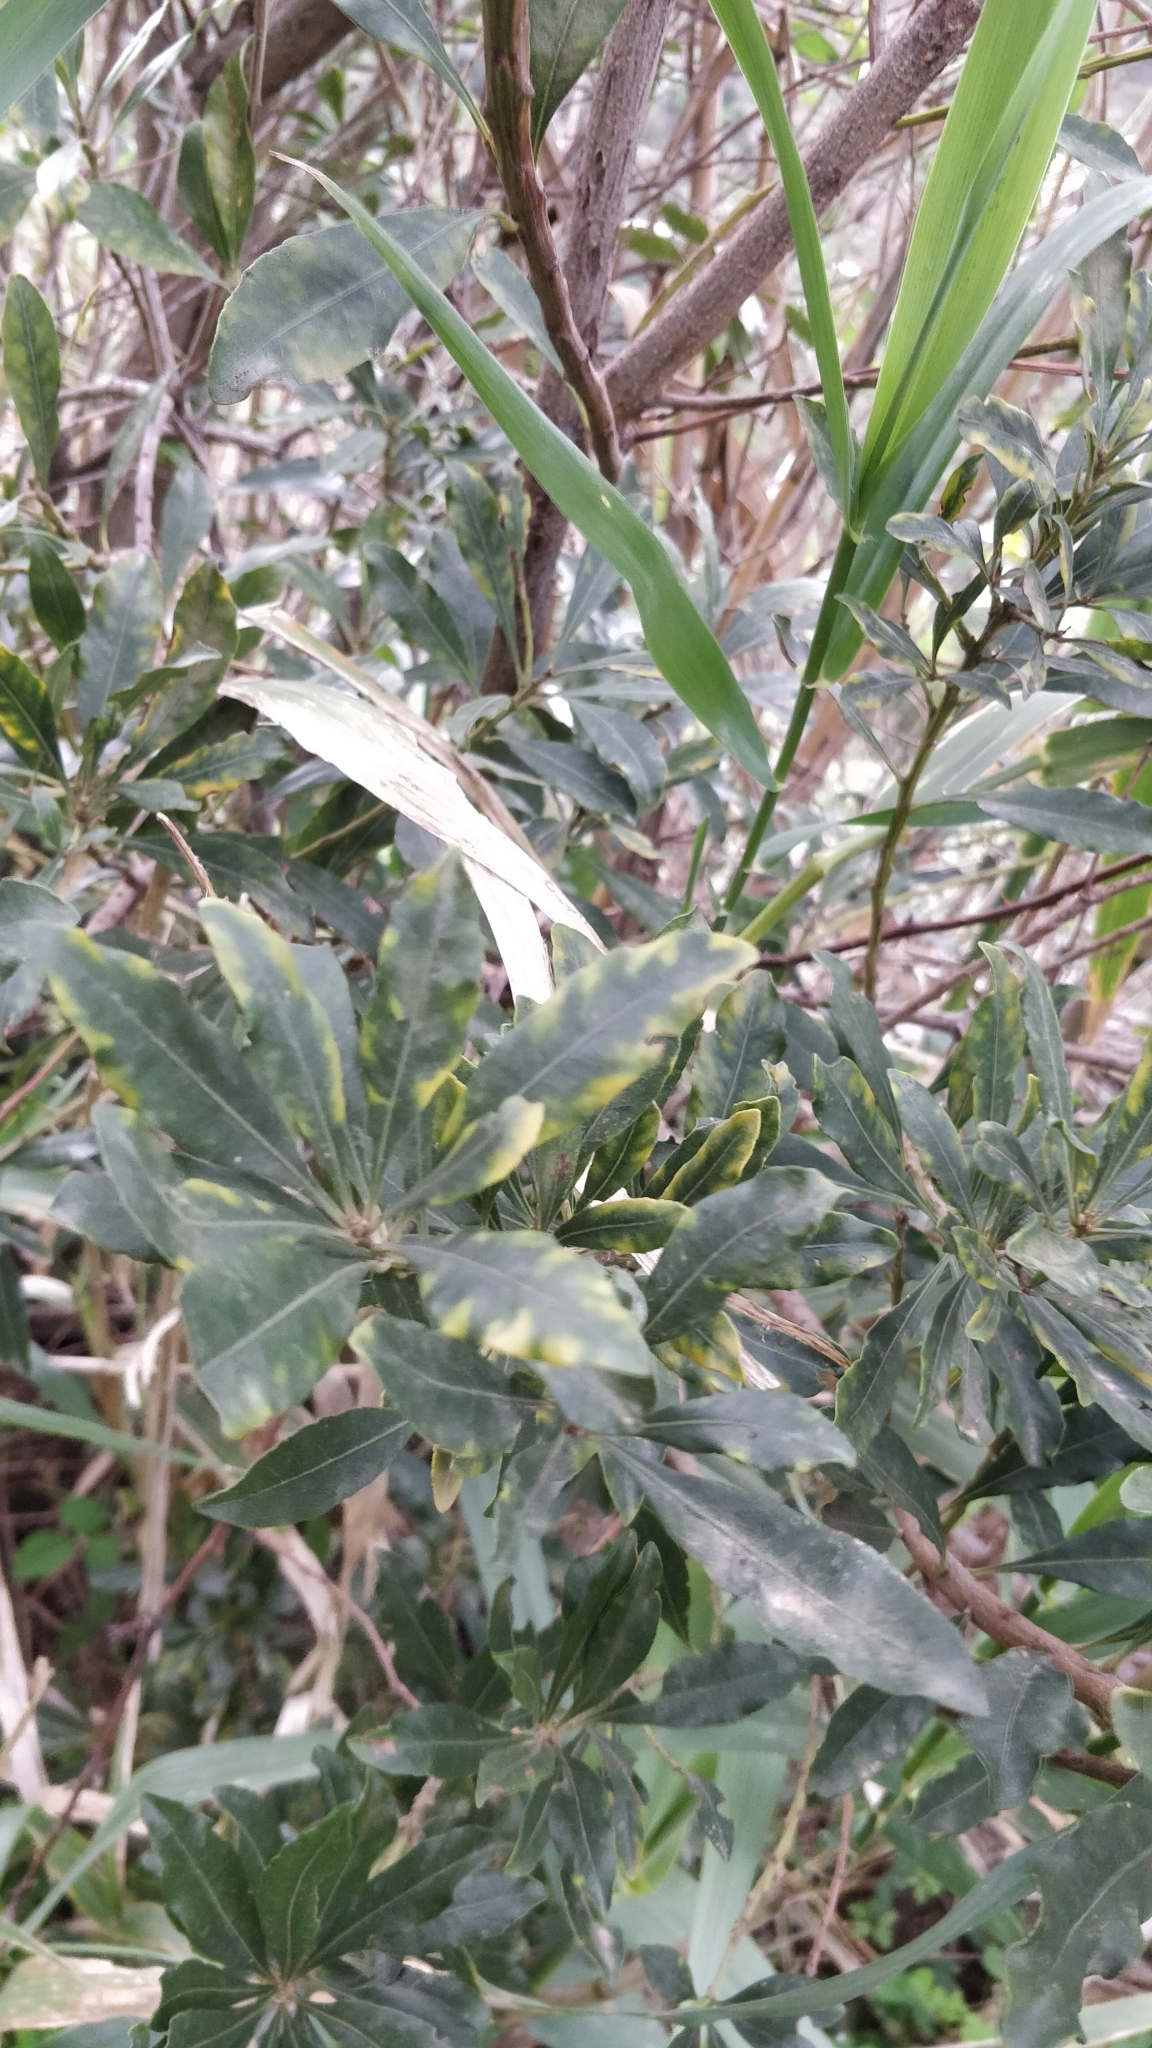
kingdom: Plantae
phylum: Tracheophyta
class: Magnoliopsida
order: Fagales
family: Myricaceae
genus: Morella
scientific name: Morella faya
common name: Firetree
